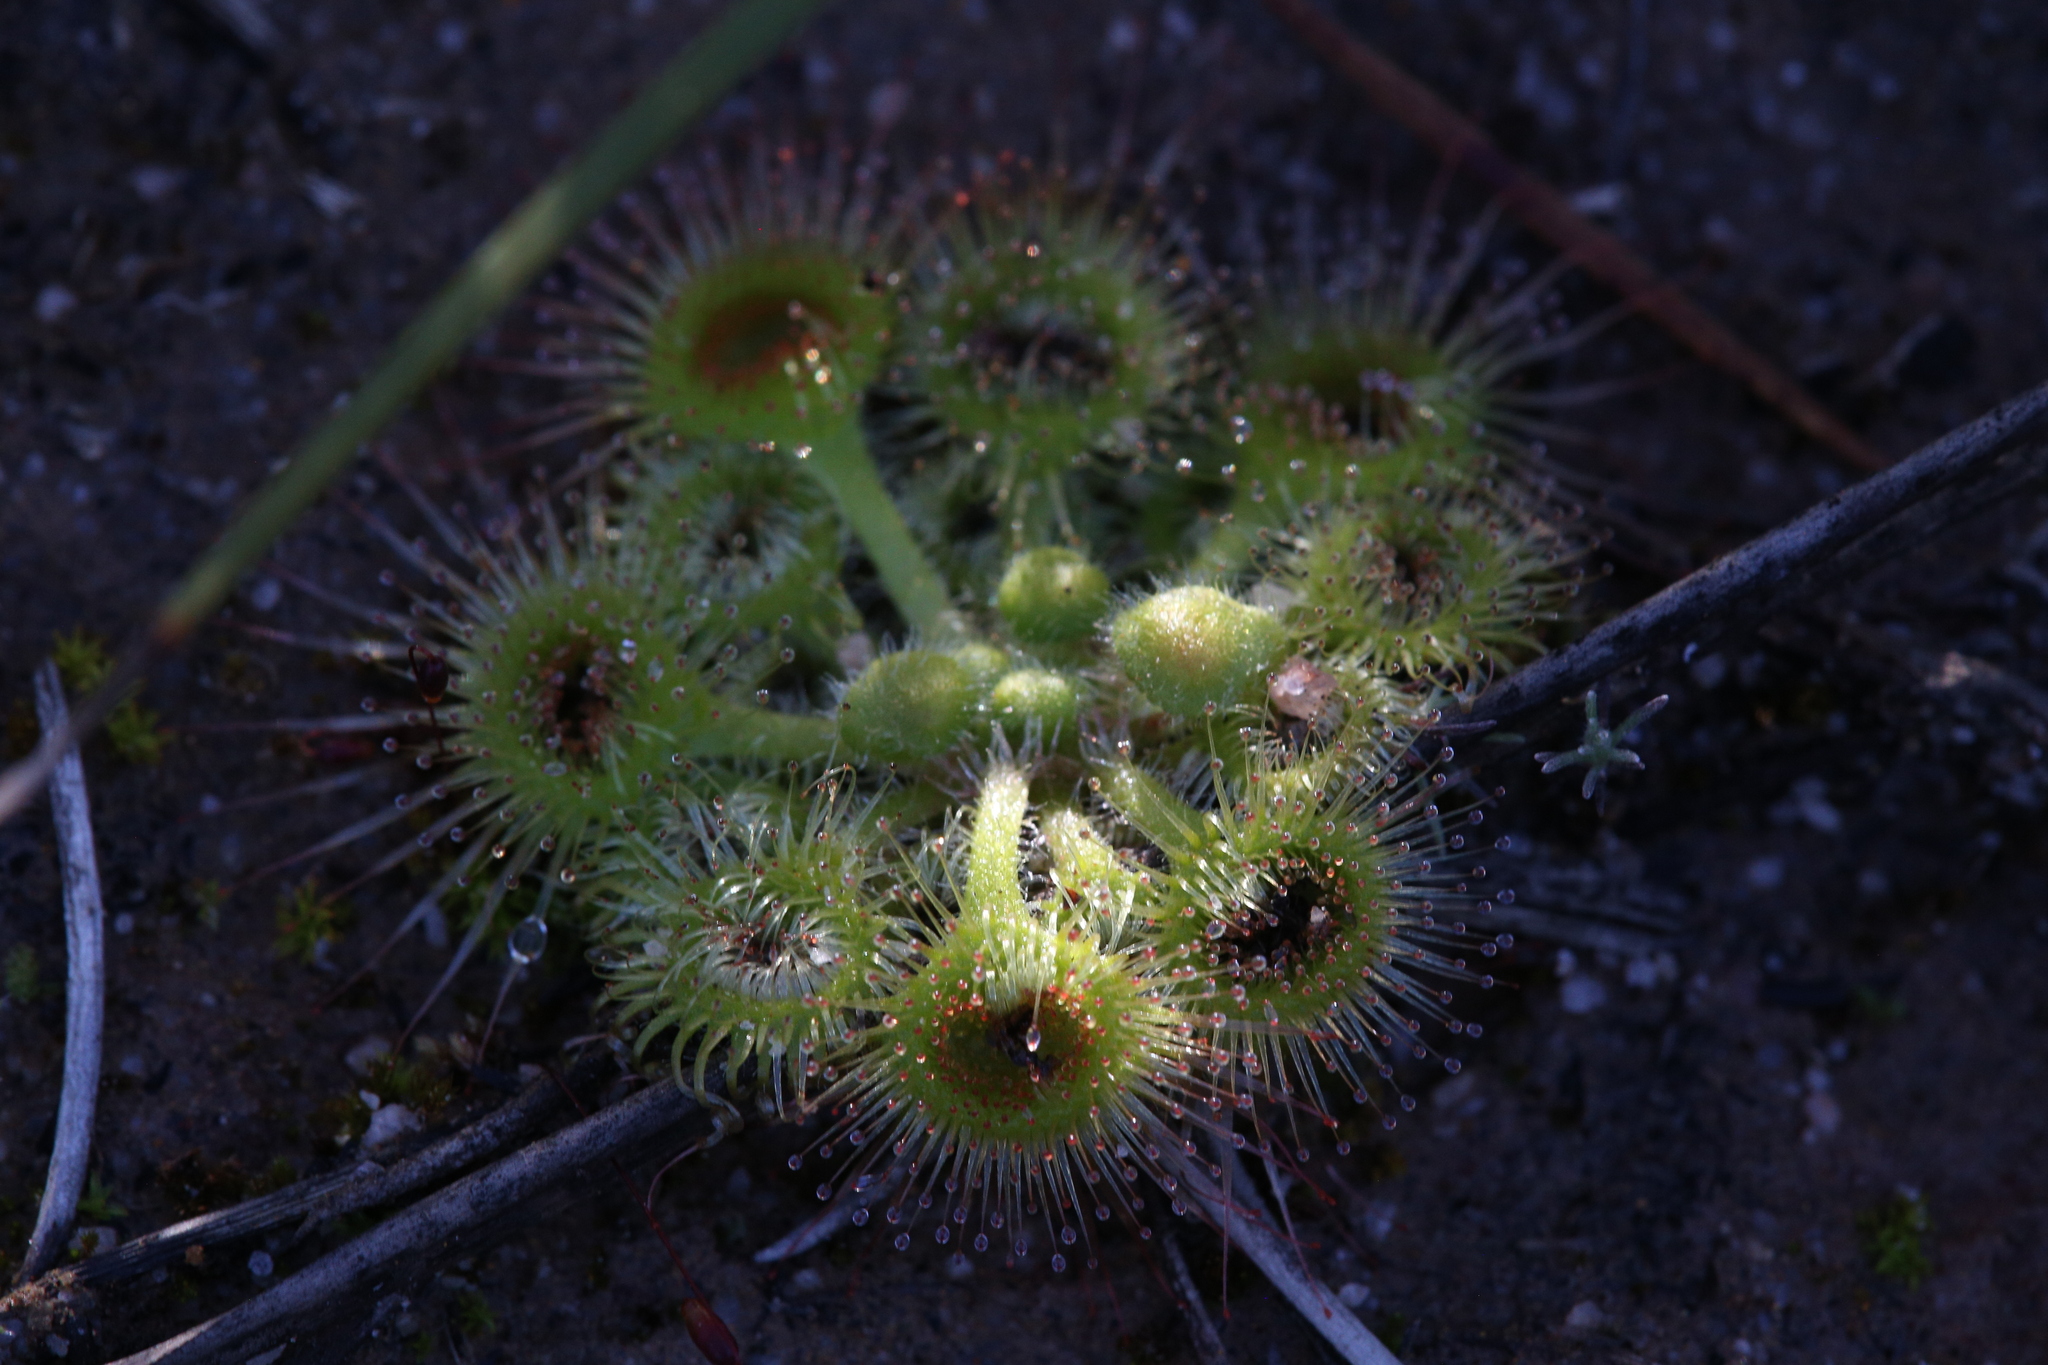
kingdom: Plantae
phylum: Tracheophyta
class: Magnoliopsida
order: Caryophyllales
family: Droseraceae
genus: Drosera
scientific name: Drosera glanduligera
